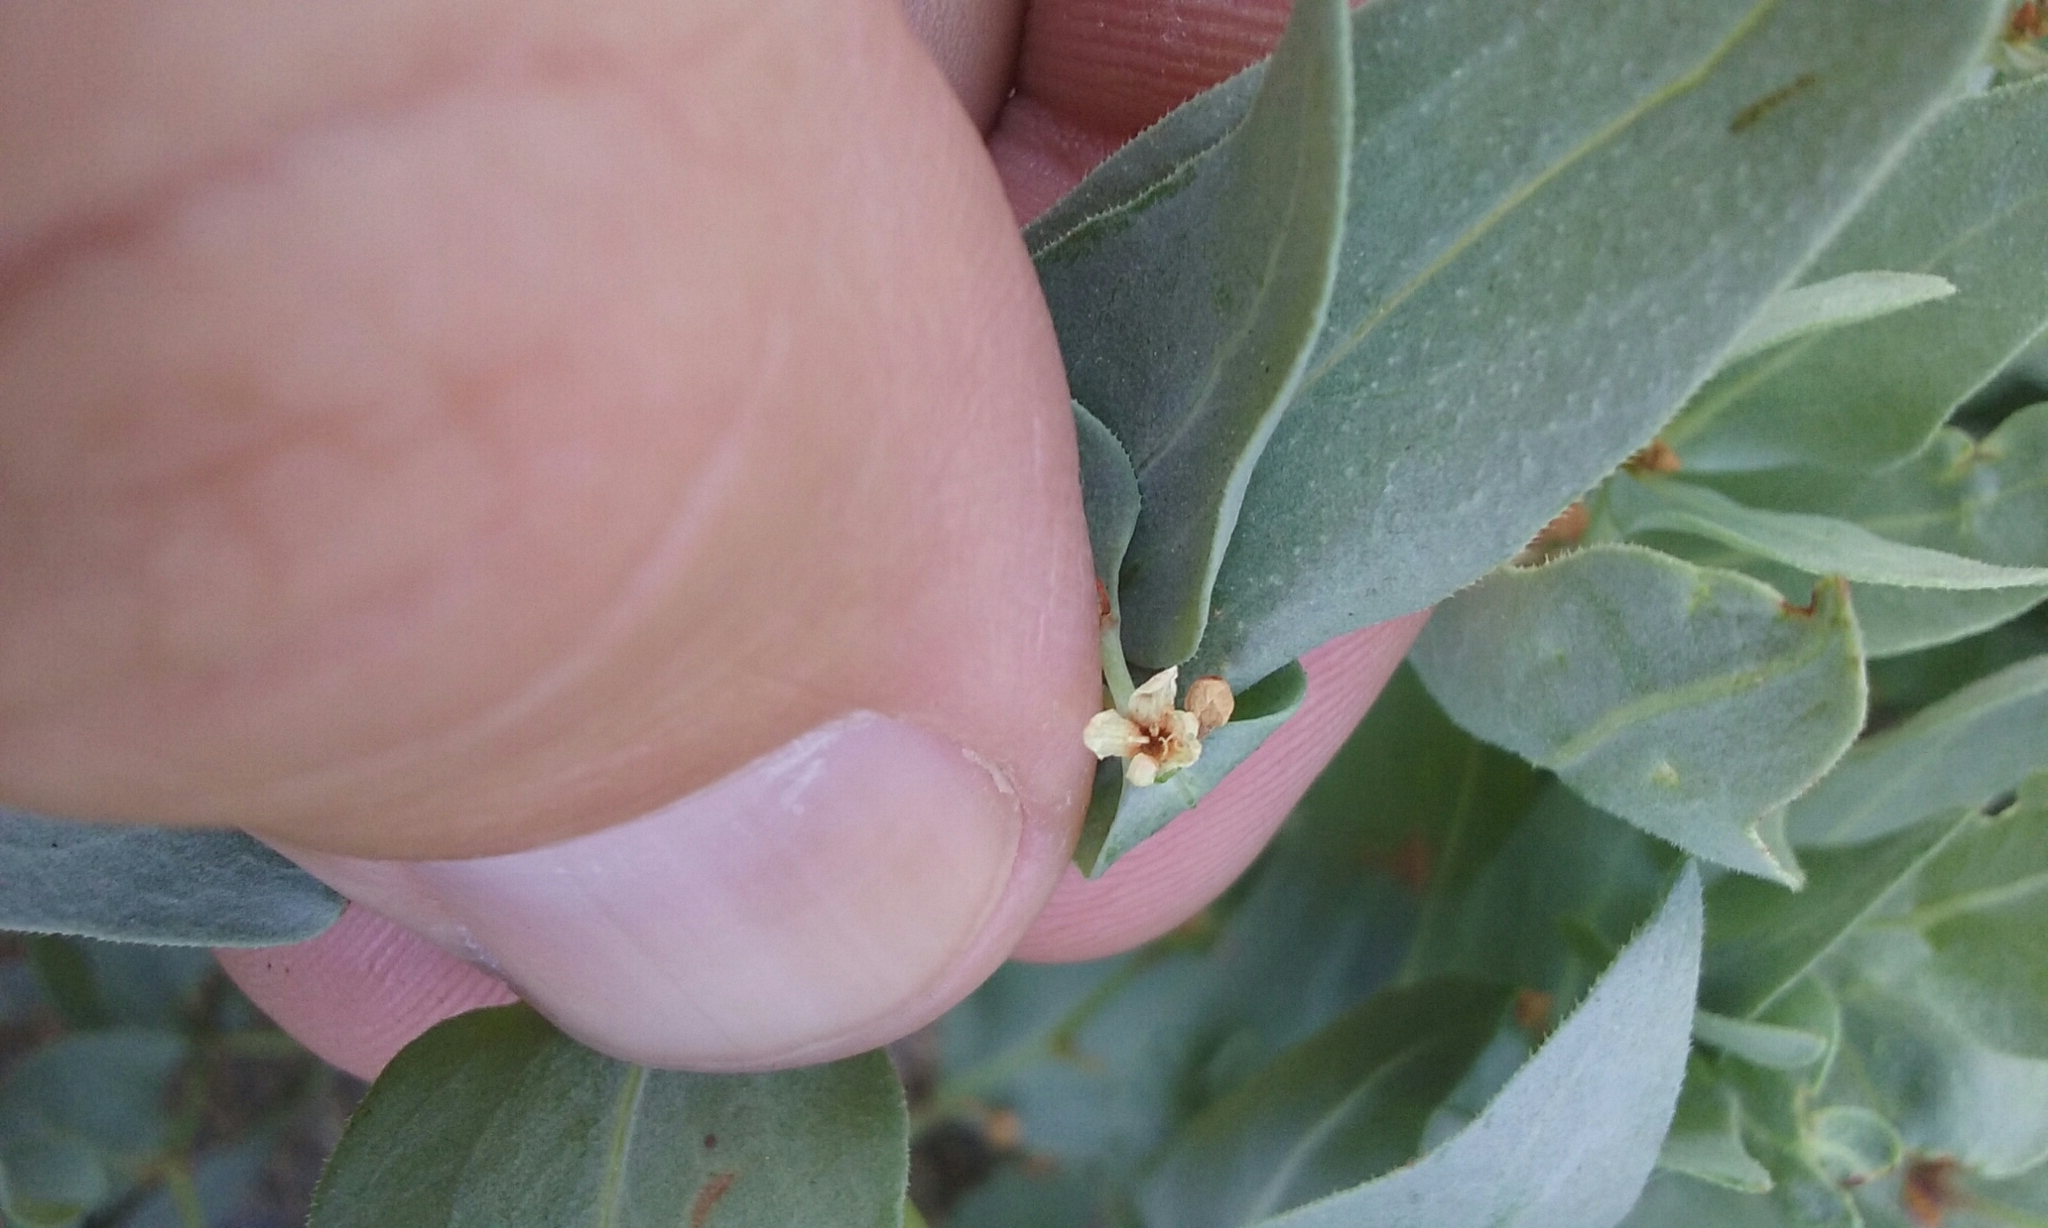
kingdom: Plantae
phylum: Tracheophyta
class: Magnoliopsida
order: Caryophyllales
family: Polygonaceae
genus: Koenigia
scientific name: Koenigia davisiae
